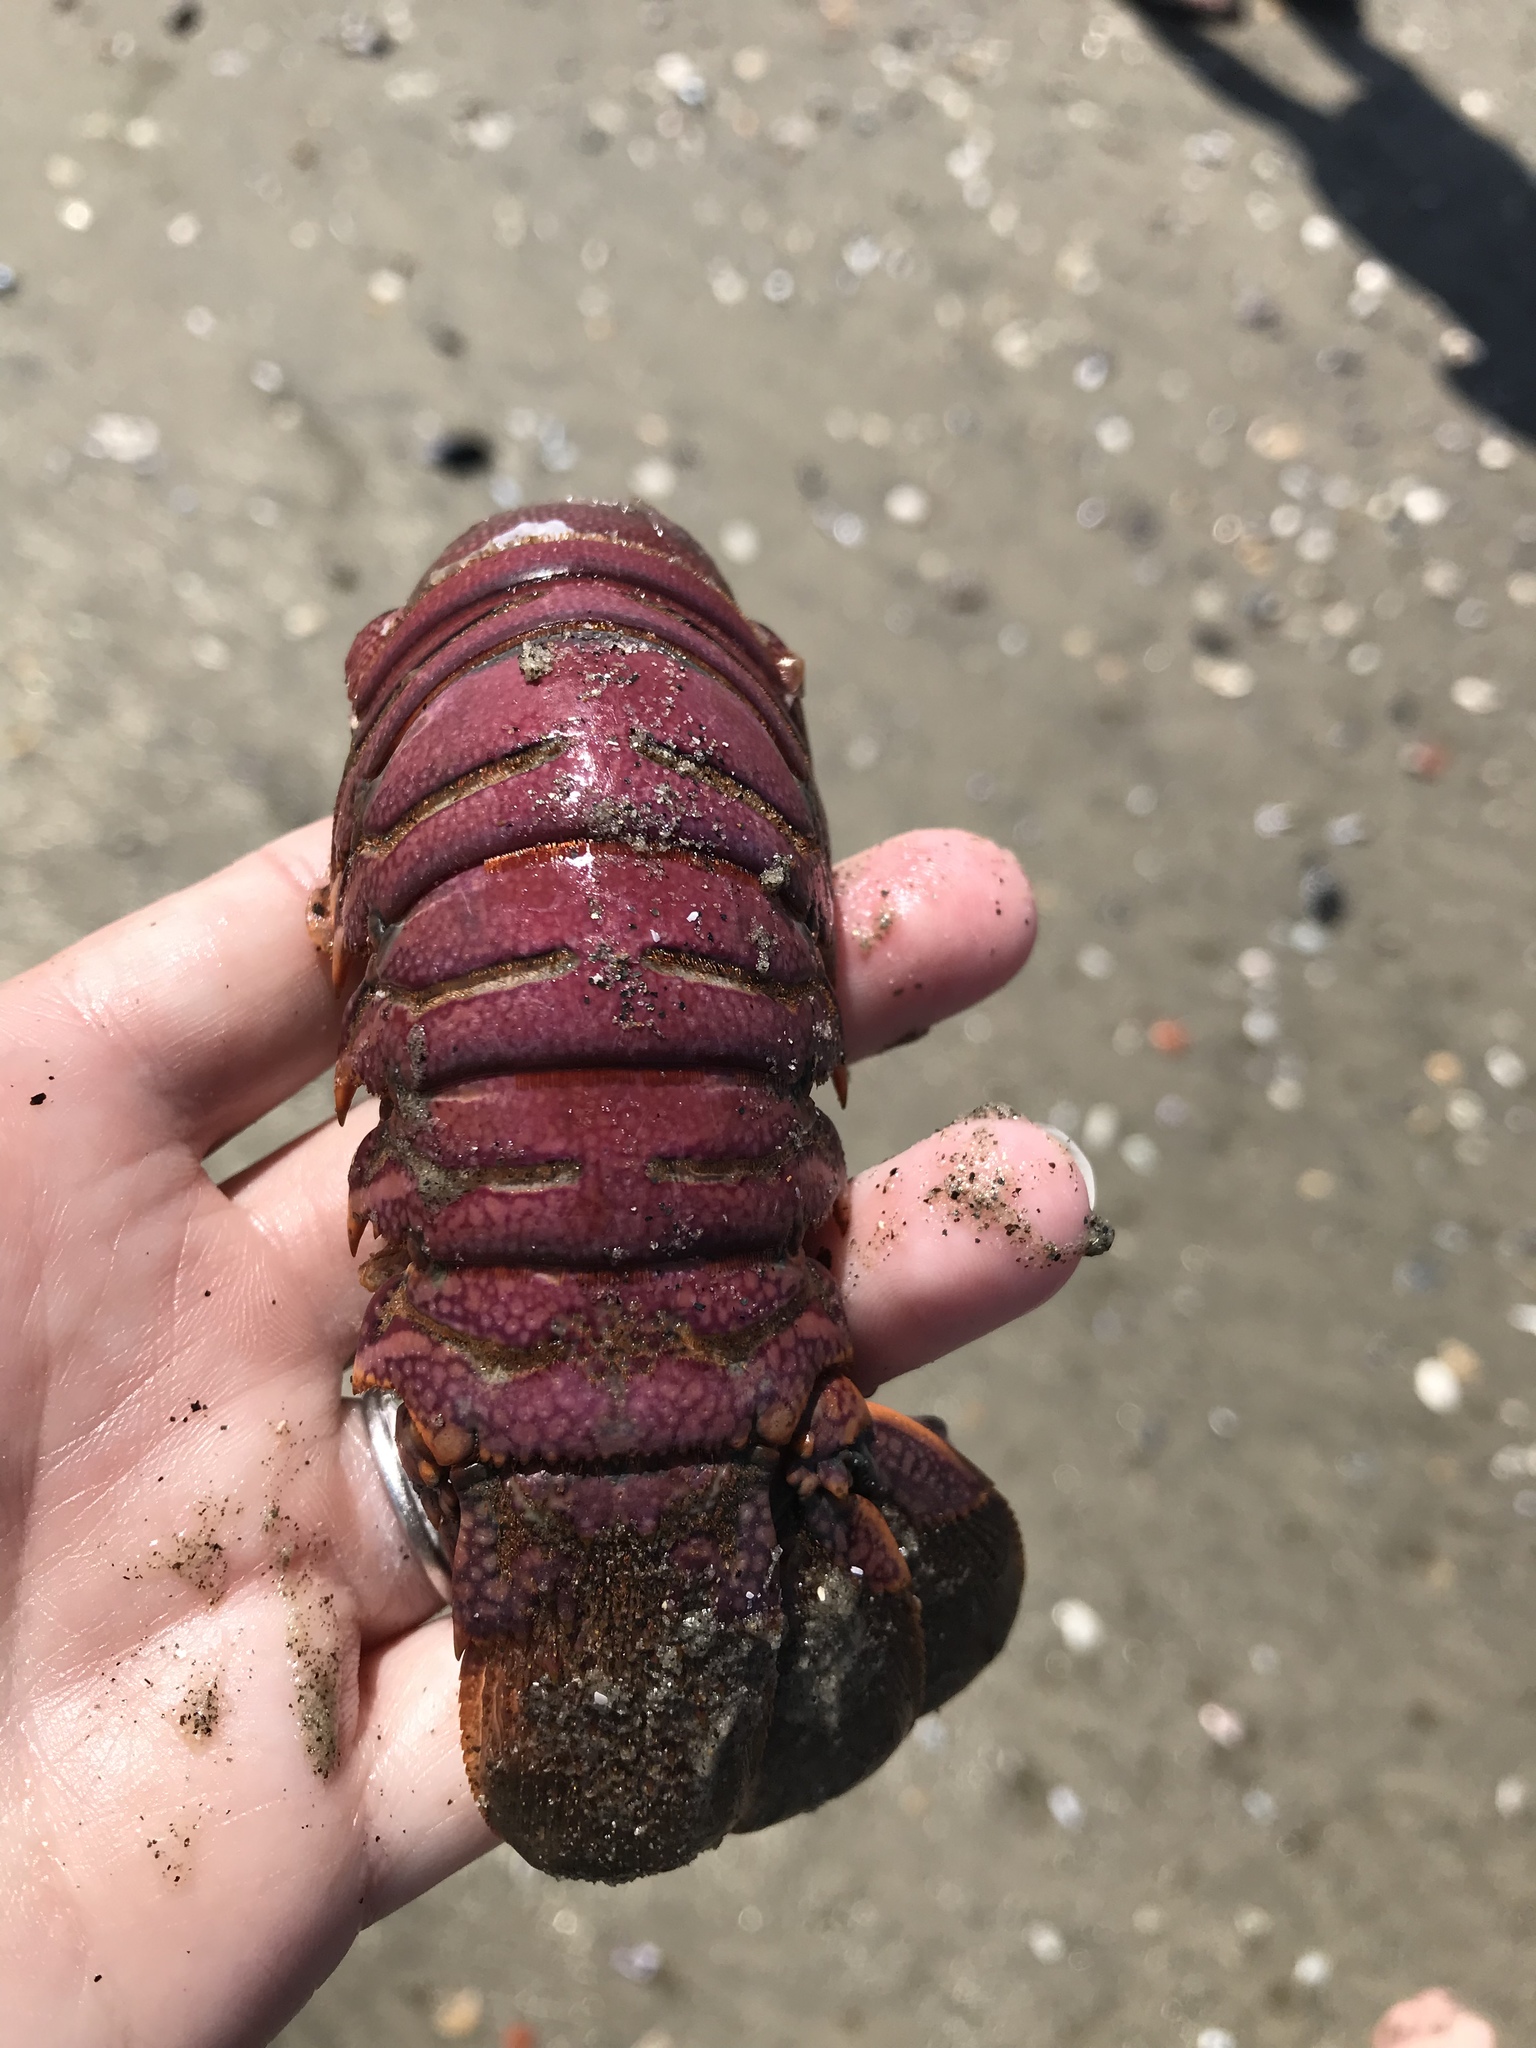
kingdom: Animalia
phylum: Arthropoda
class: Malacostraca
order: Decapoda
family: Palinuridae
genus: Panulirus
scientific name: Panulirus interruptus
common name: California spiny lobster
